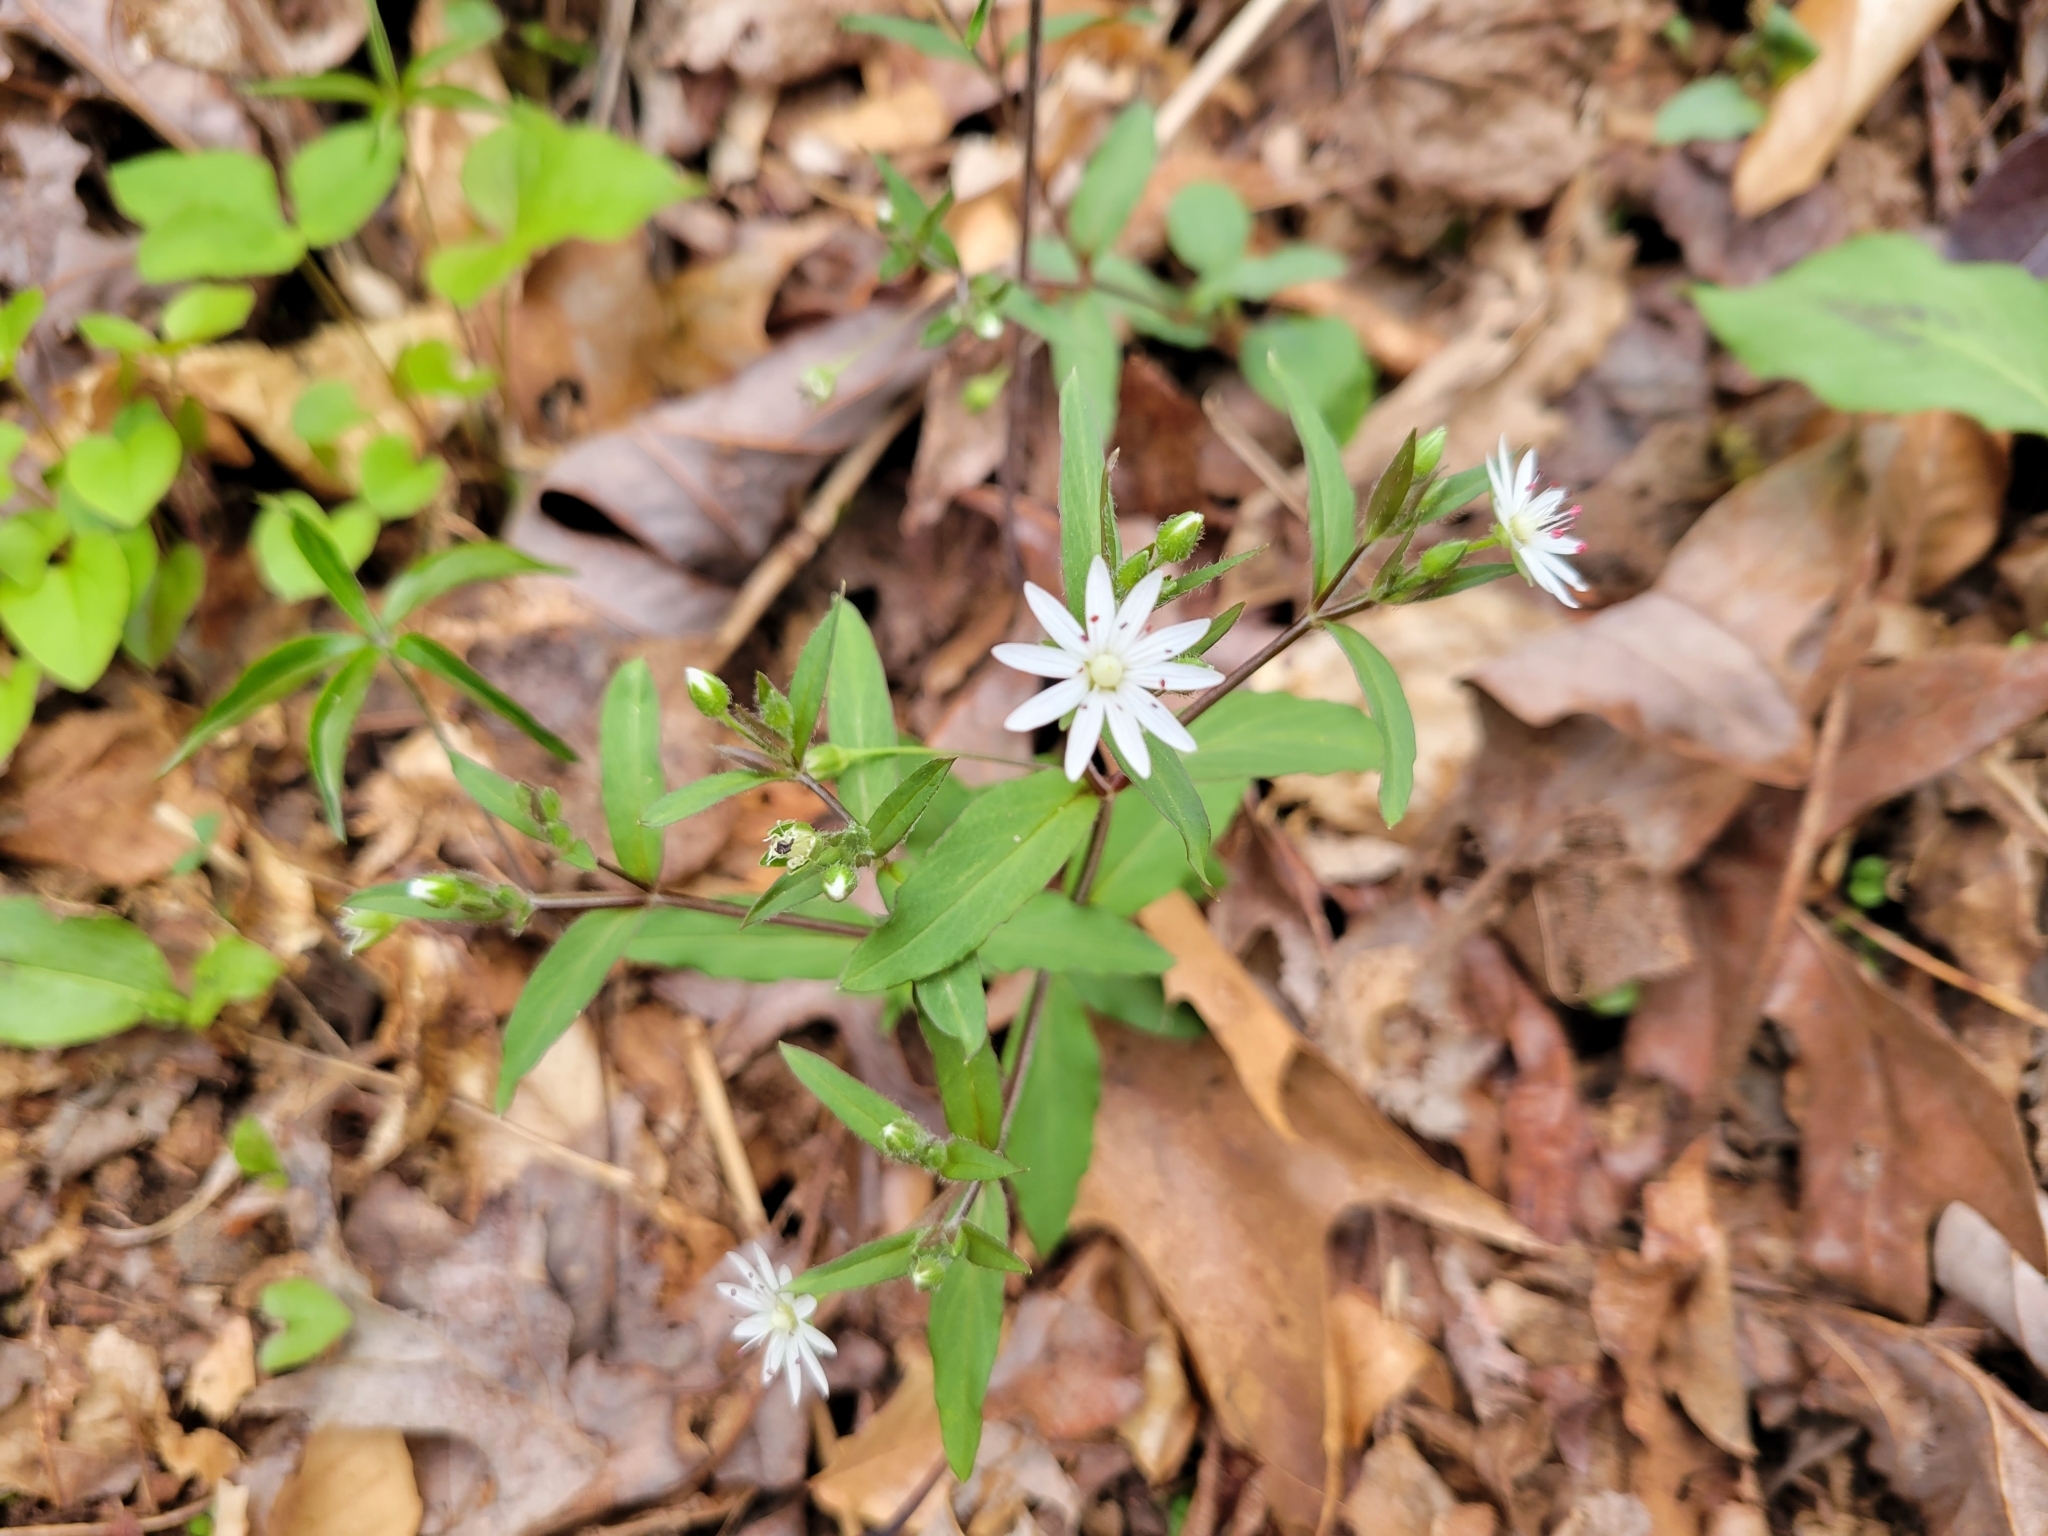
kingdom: Plantae
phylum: Tracheophyta
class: Magnoliopsida
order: Caryophyllales
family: Caryophyllaceae
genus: Stellaria
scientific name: Stellaria pubera
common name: Star chickweed
